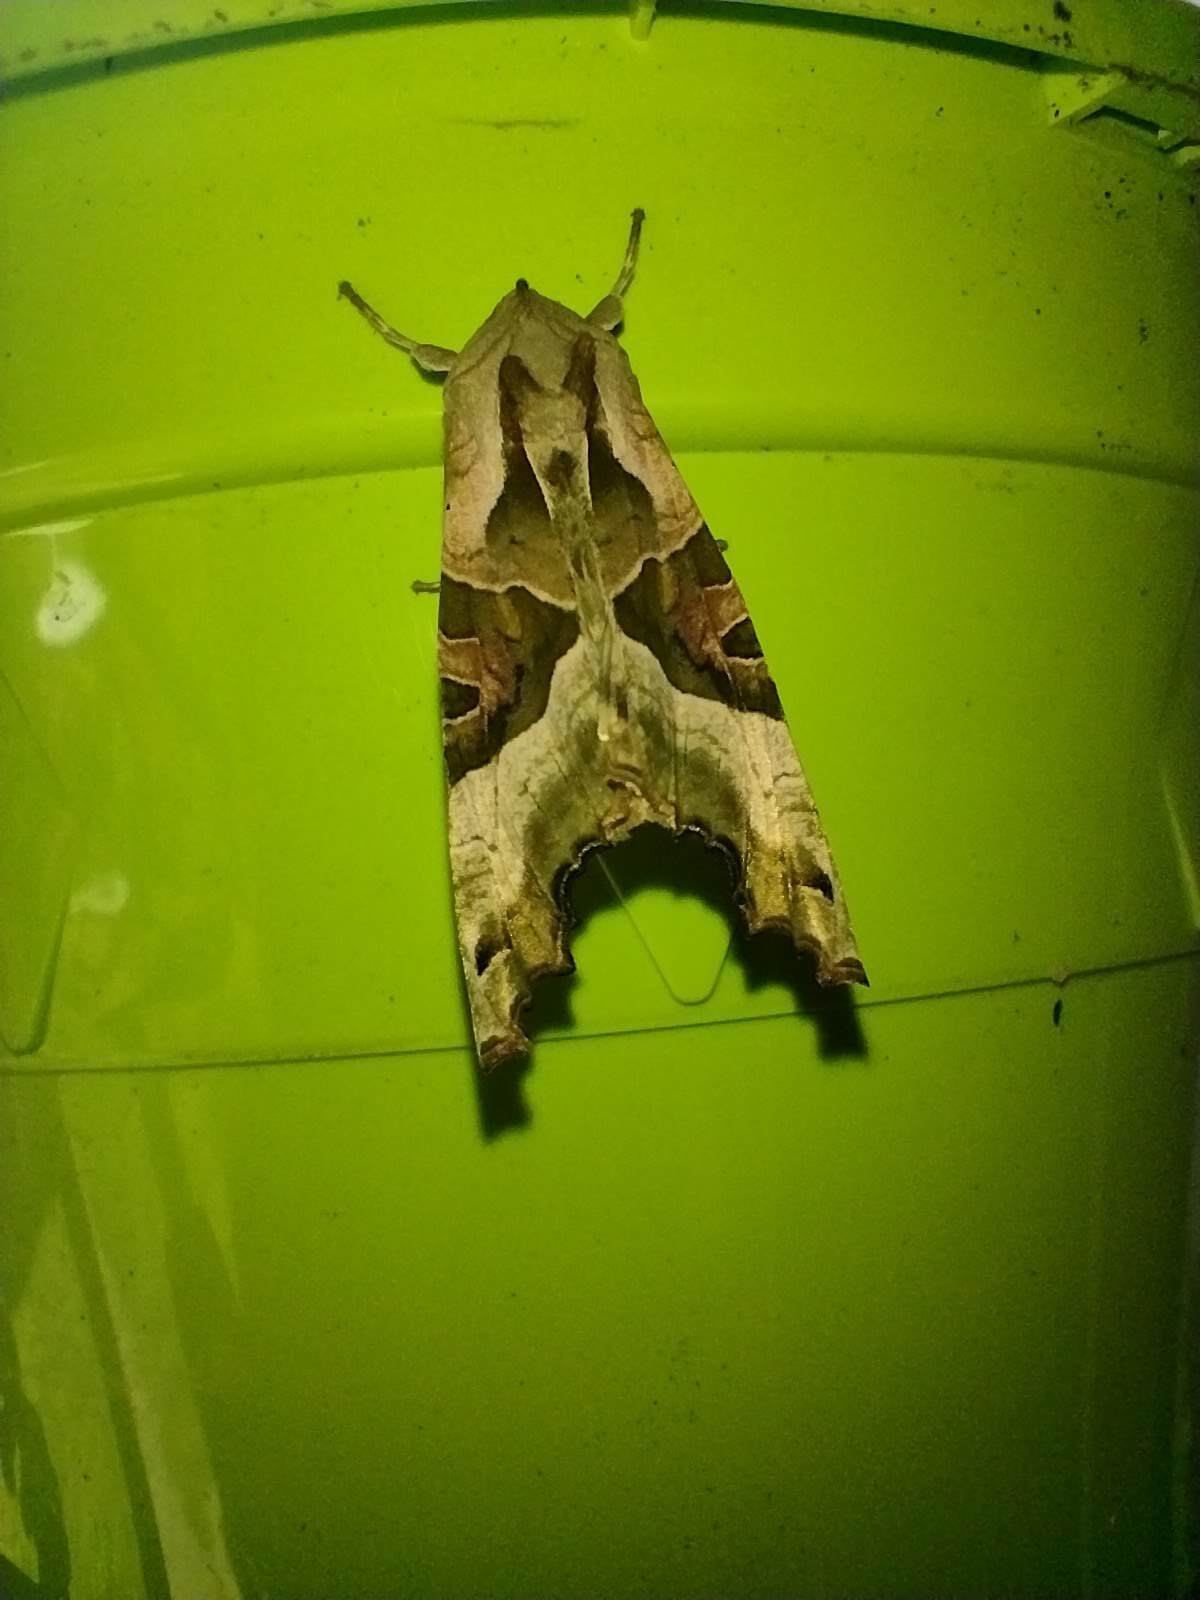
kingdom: Animalia
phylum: Arthropoda
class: Insecta
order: Lepidoptera
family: Noctuidae
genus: Phlogophora
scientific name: Phlogophora meticulosa
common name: Angle shades
